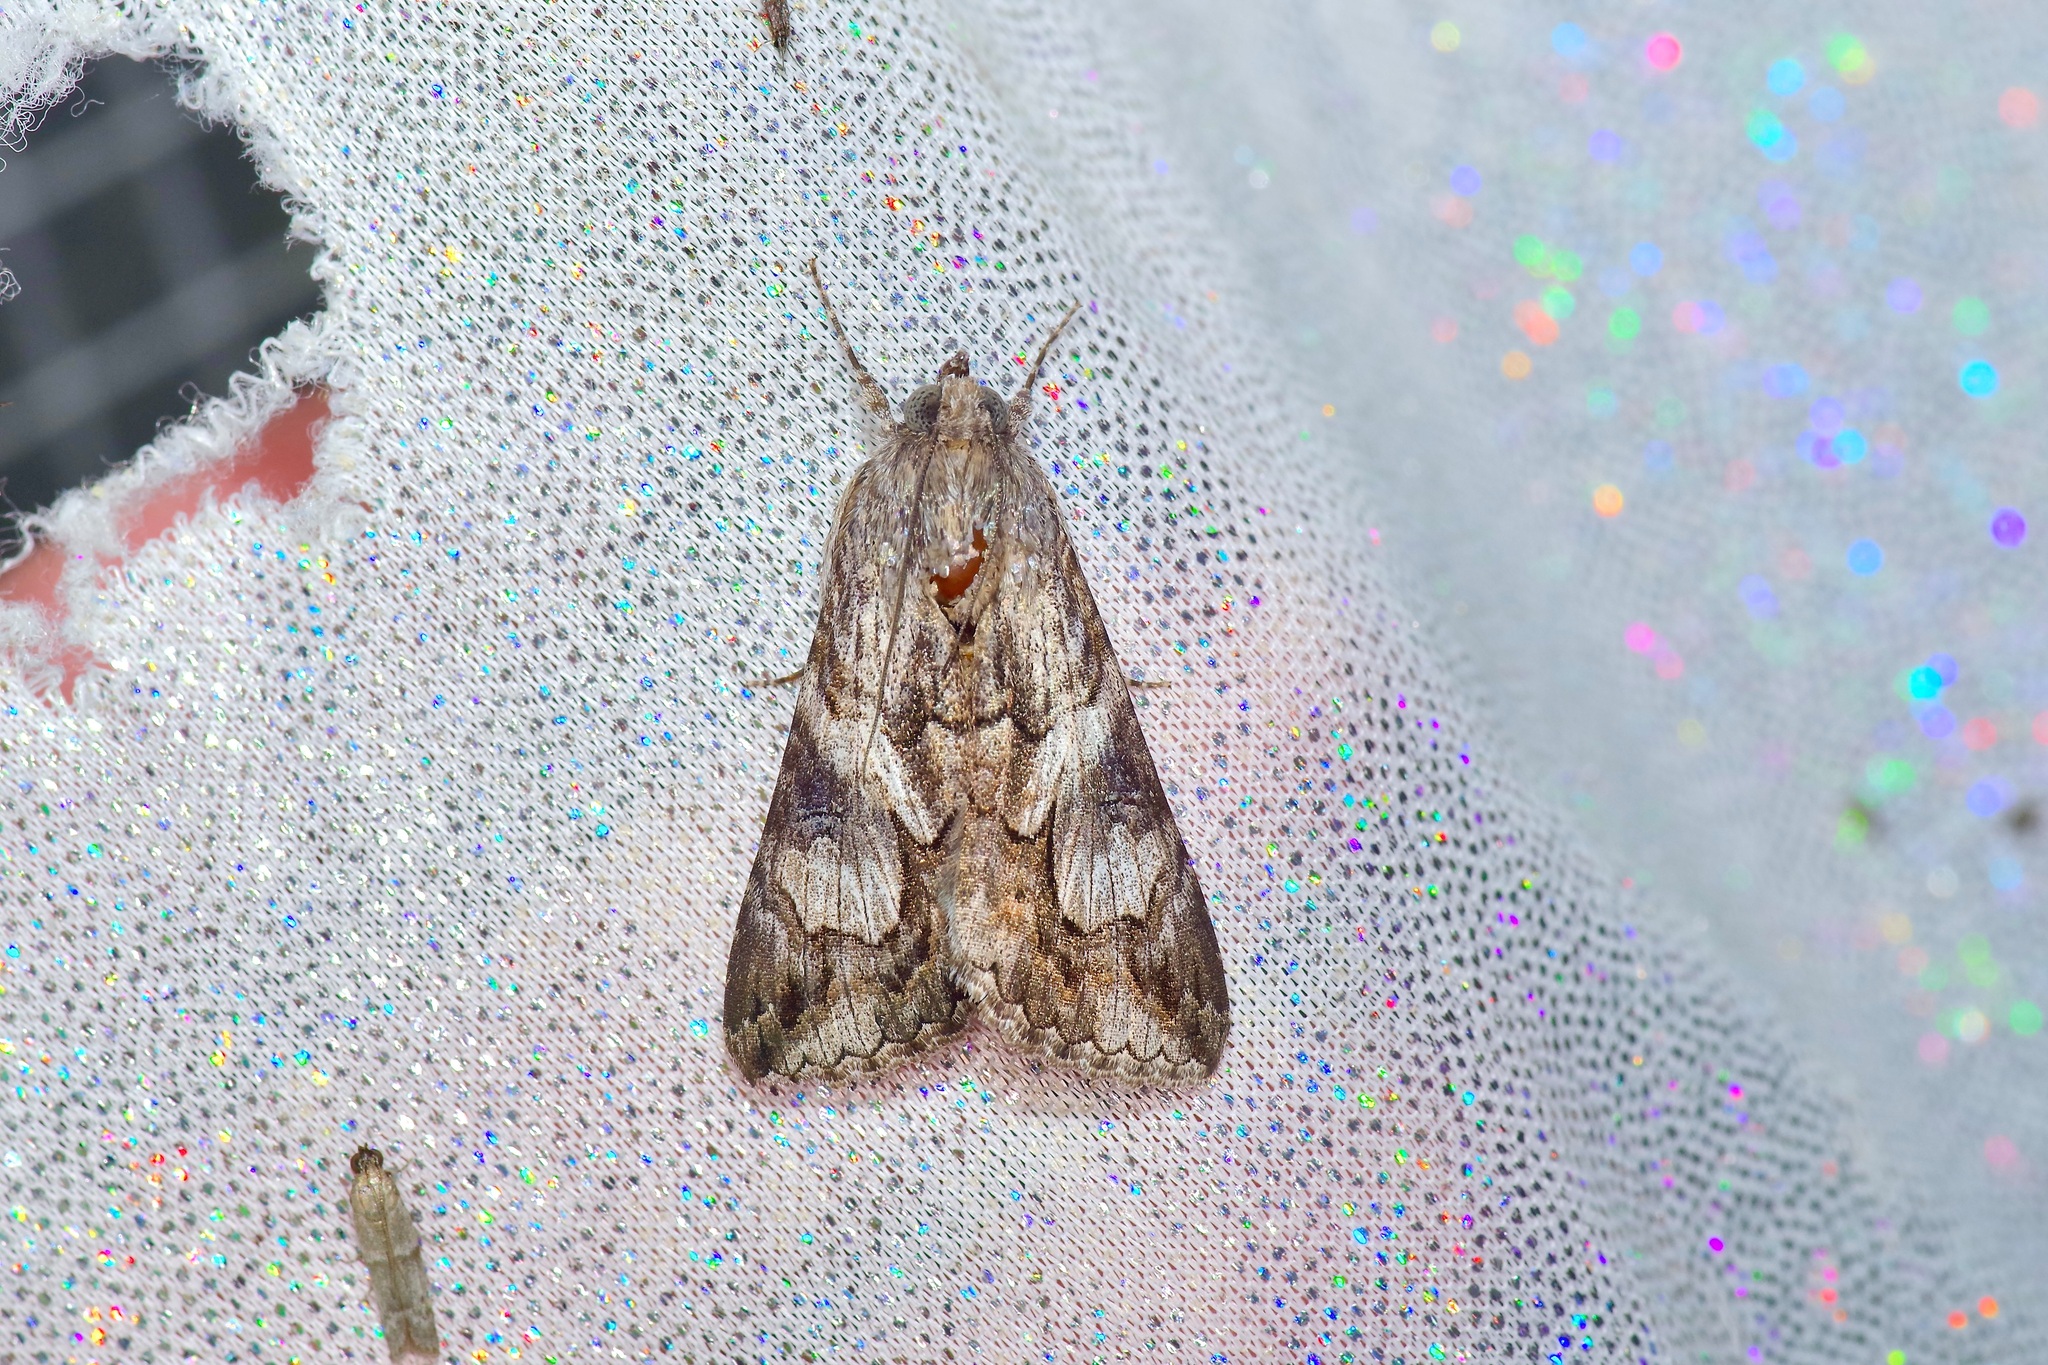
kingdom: Animalia
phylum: Arthropoda
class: Insecta
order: Lepidoptera
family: Erebidae
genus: Melipotis
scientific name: Melipotis jucunda
